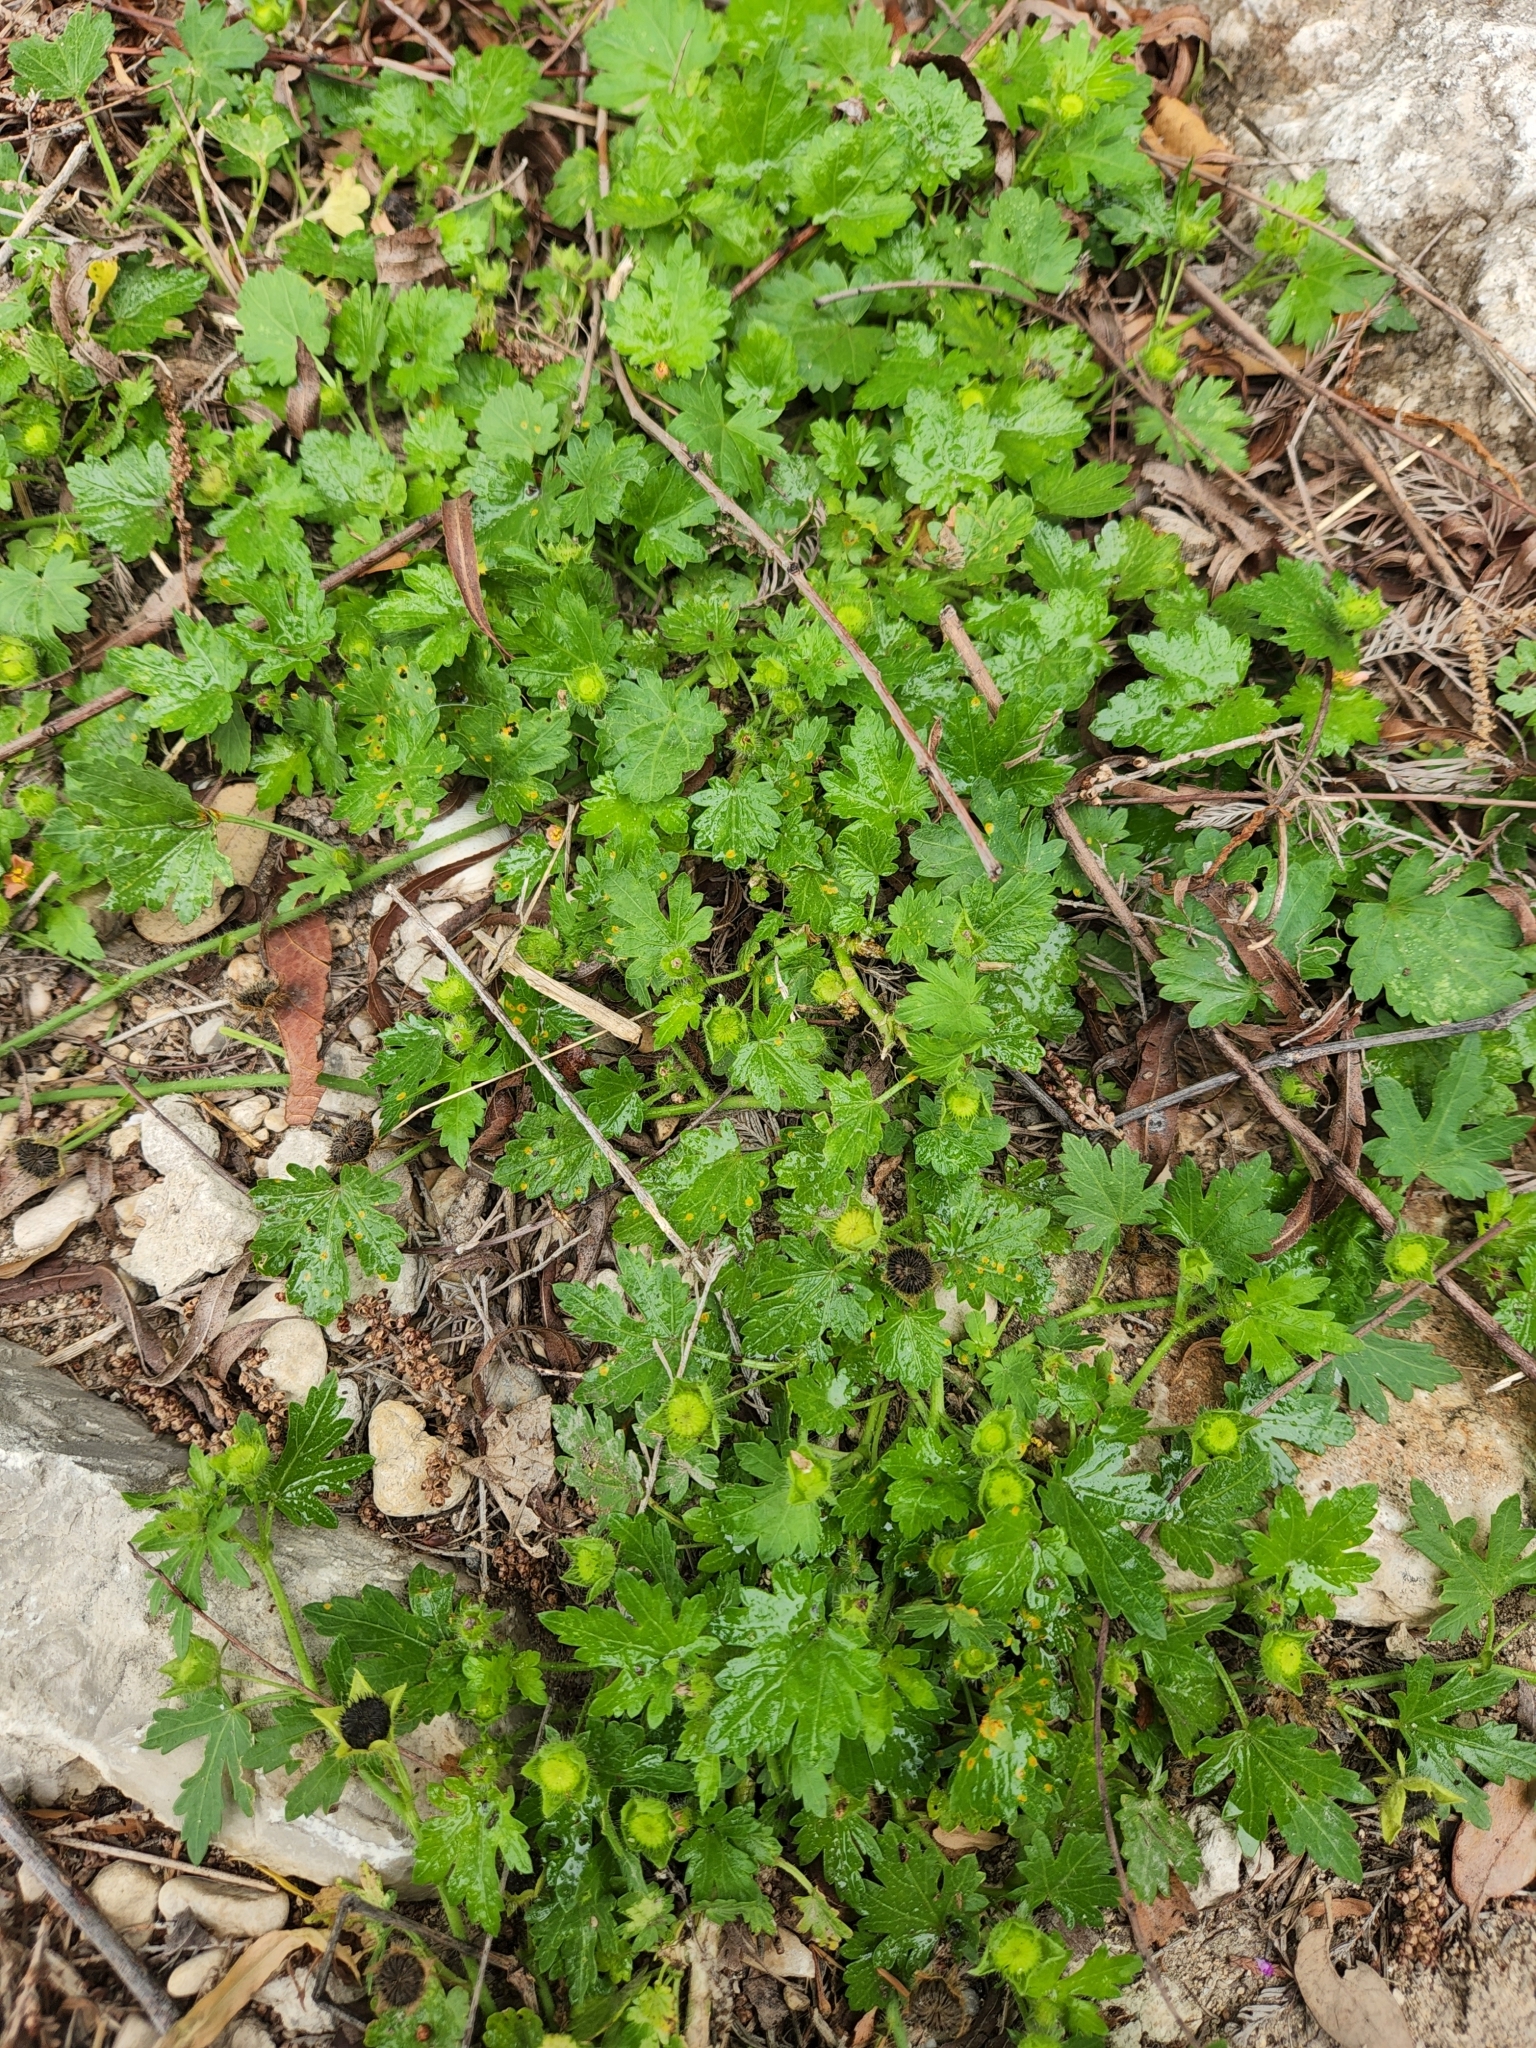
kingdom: Plantae
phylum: Tracheophyta
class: Magnoliopsida
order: Malvales
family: Malvaceae
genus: Modiola
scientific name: Modiola caroliniana
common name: Carolina bristlemallow
